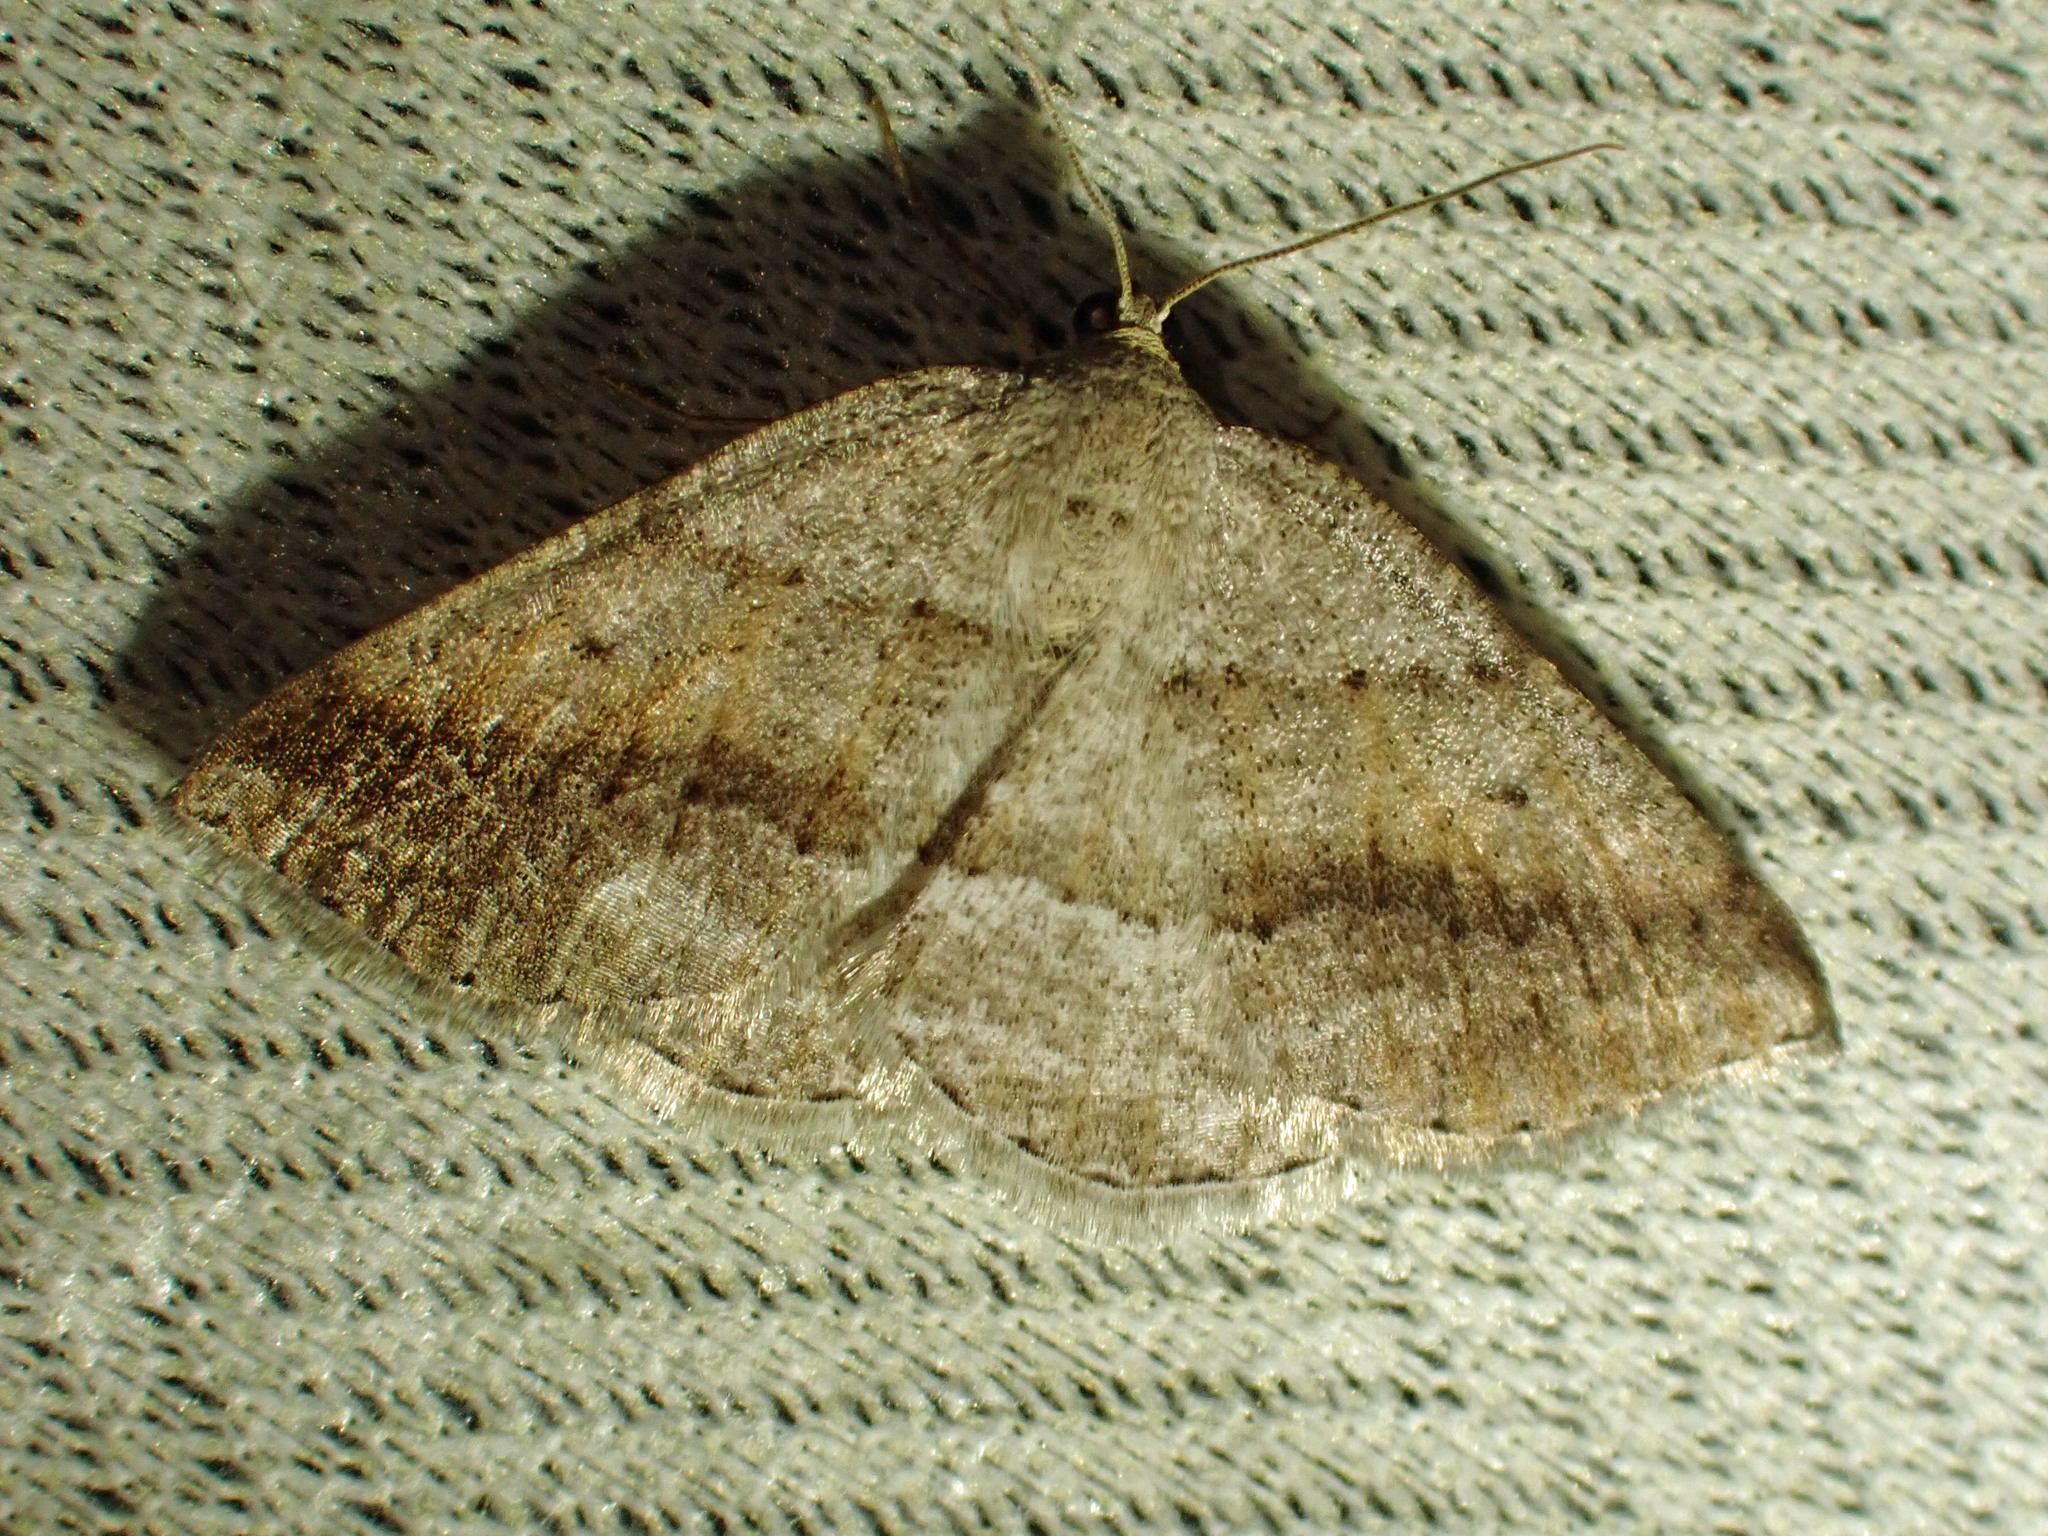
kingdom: Animalia
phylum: Arthropoda
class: Insecta
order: Lepidoptera
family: Geometridae
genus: Tacparia
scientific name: Tacparia detersata
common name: Pale alder moth
